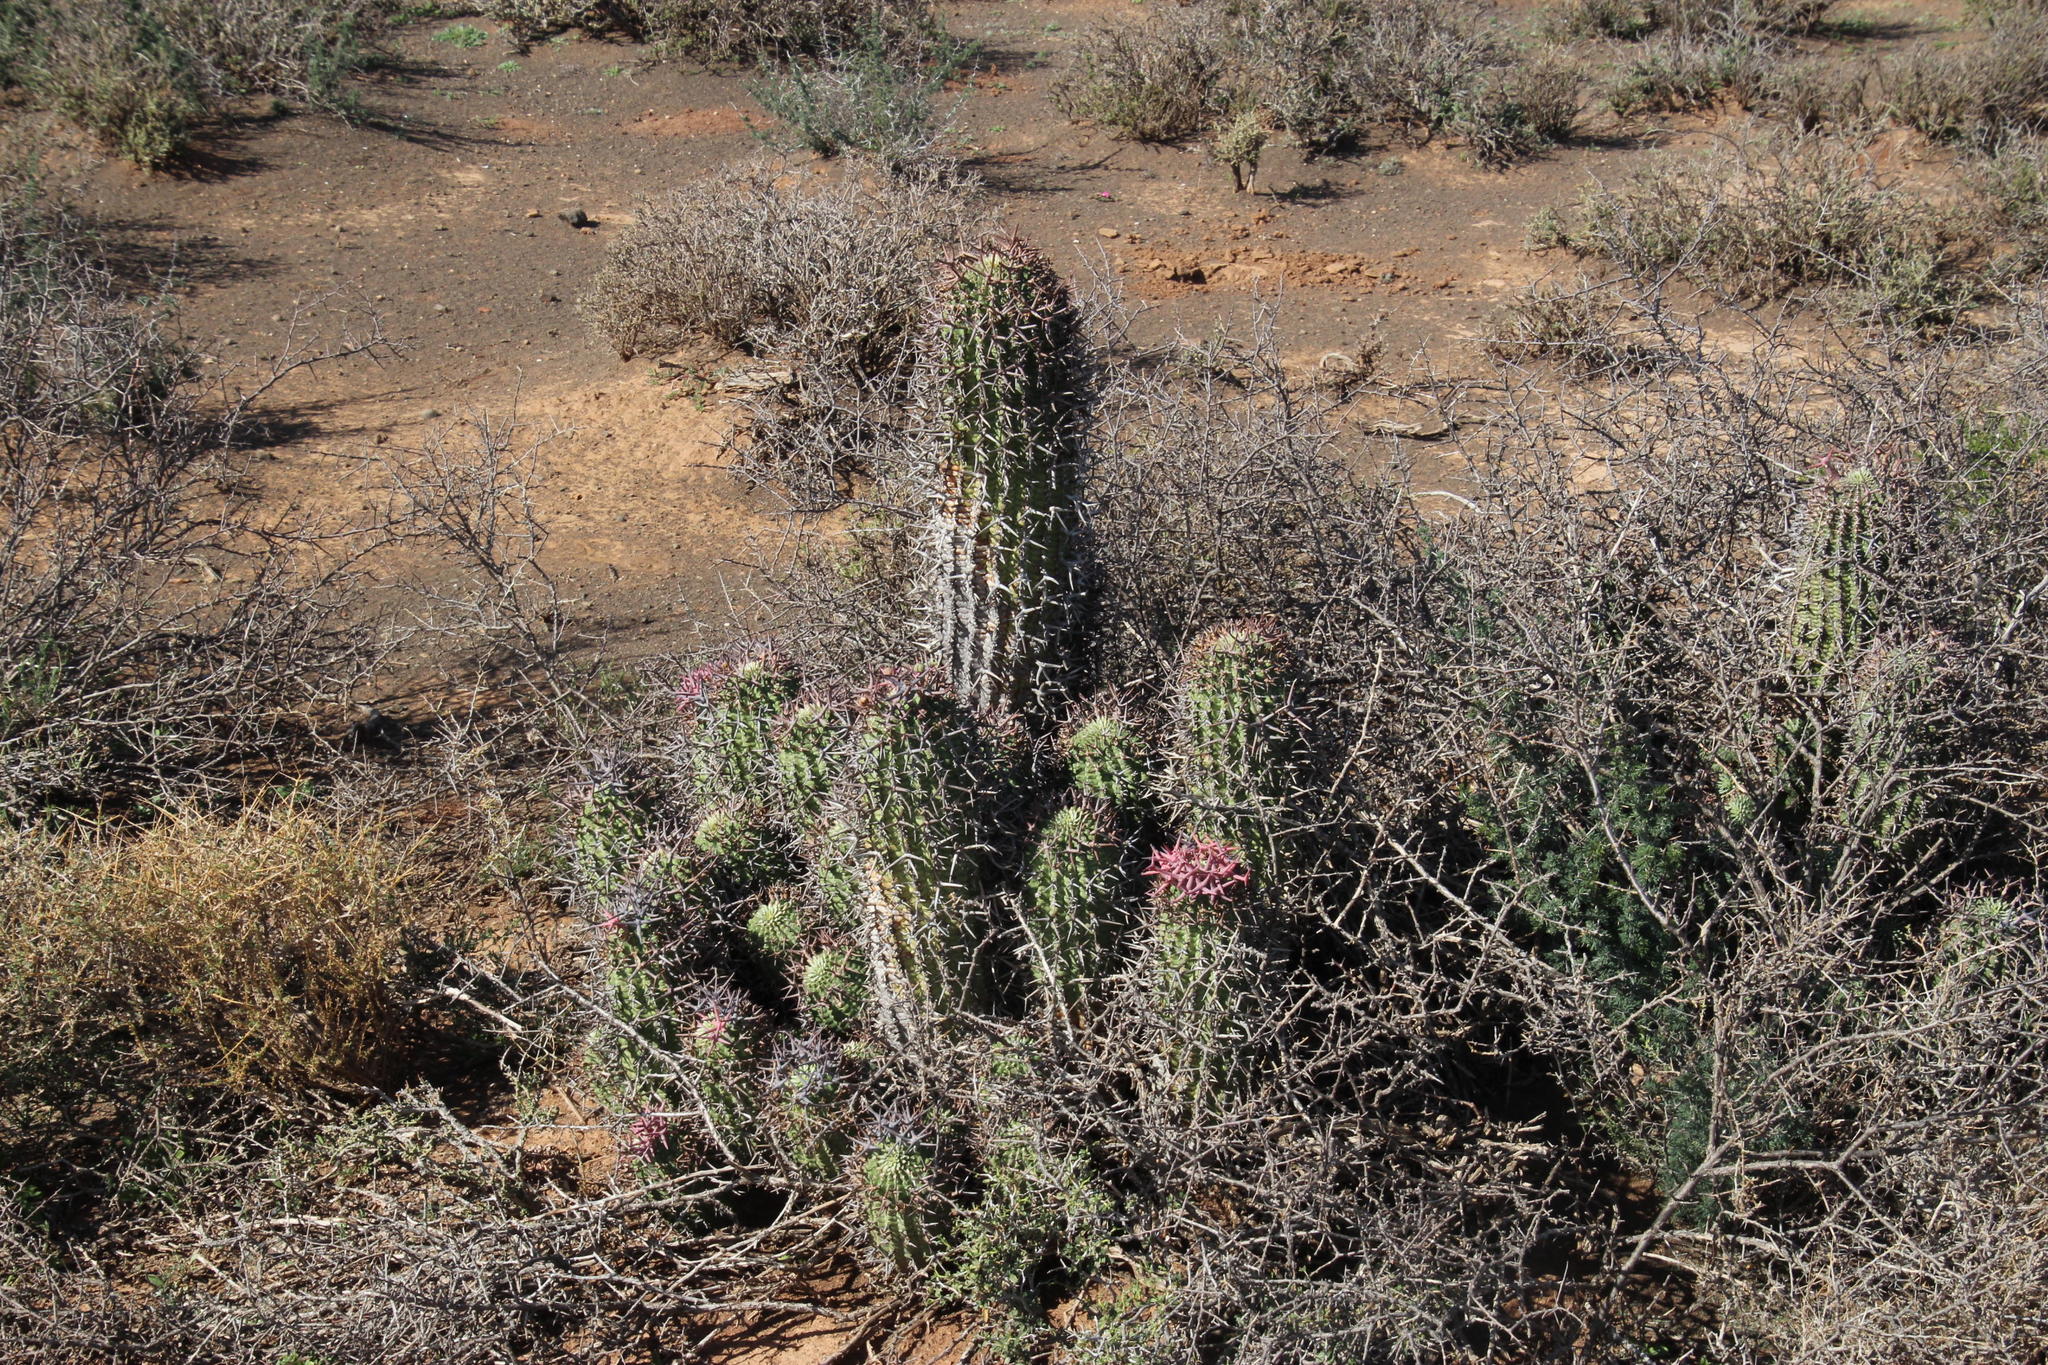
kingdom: Plantae
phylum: Tracheophyta
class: Magnoliopsida
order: Malpighiales
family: Euphorbiaceae
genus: Euphorbia
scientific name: Euphorbia stellispina
